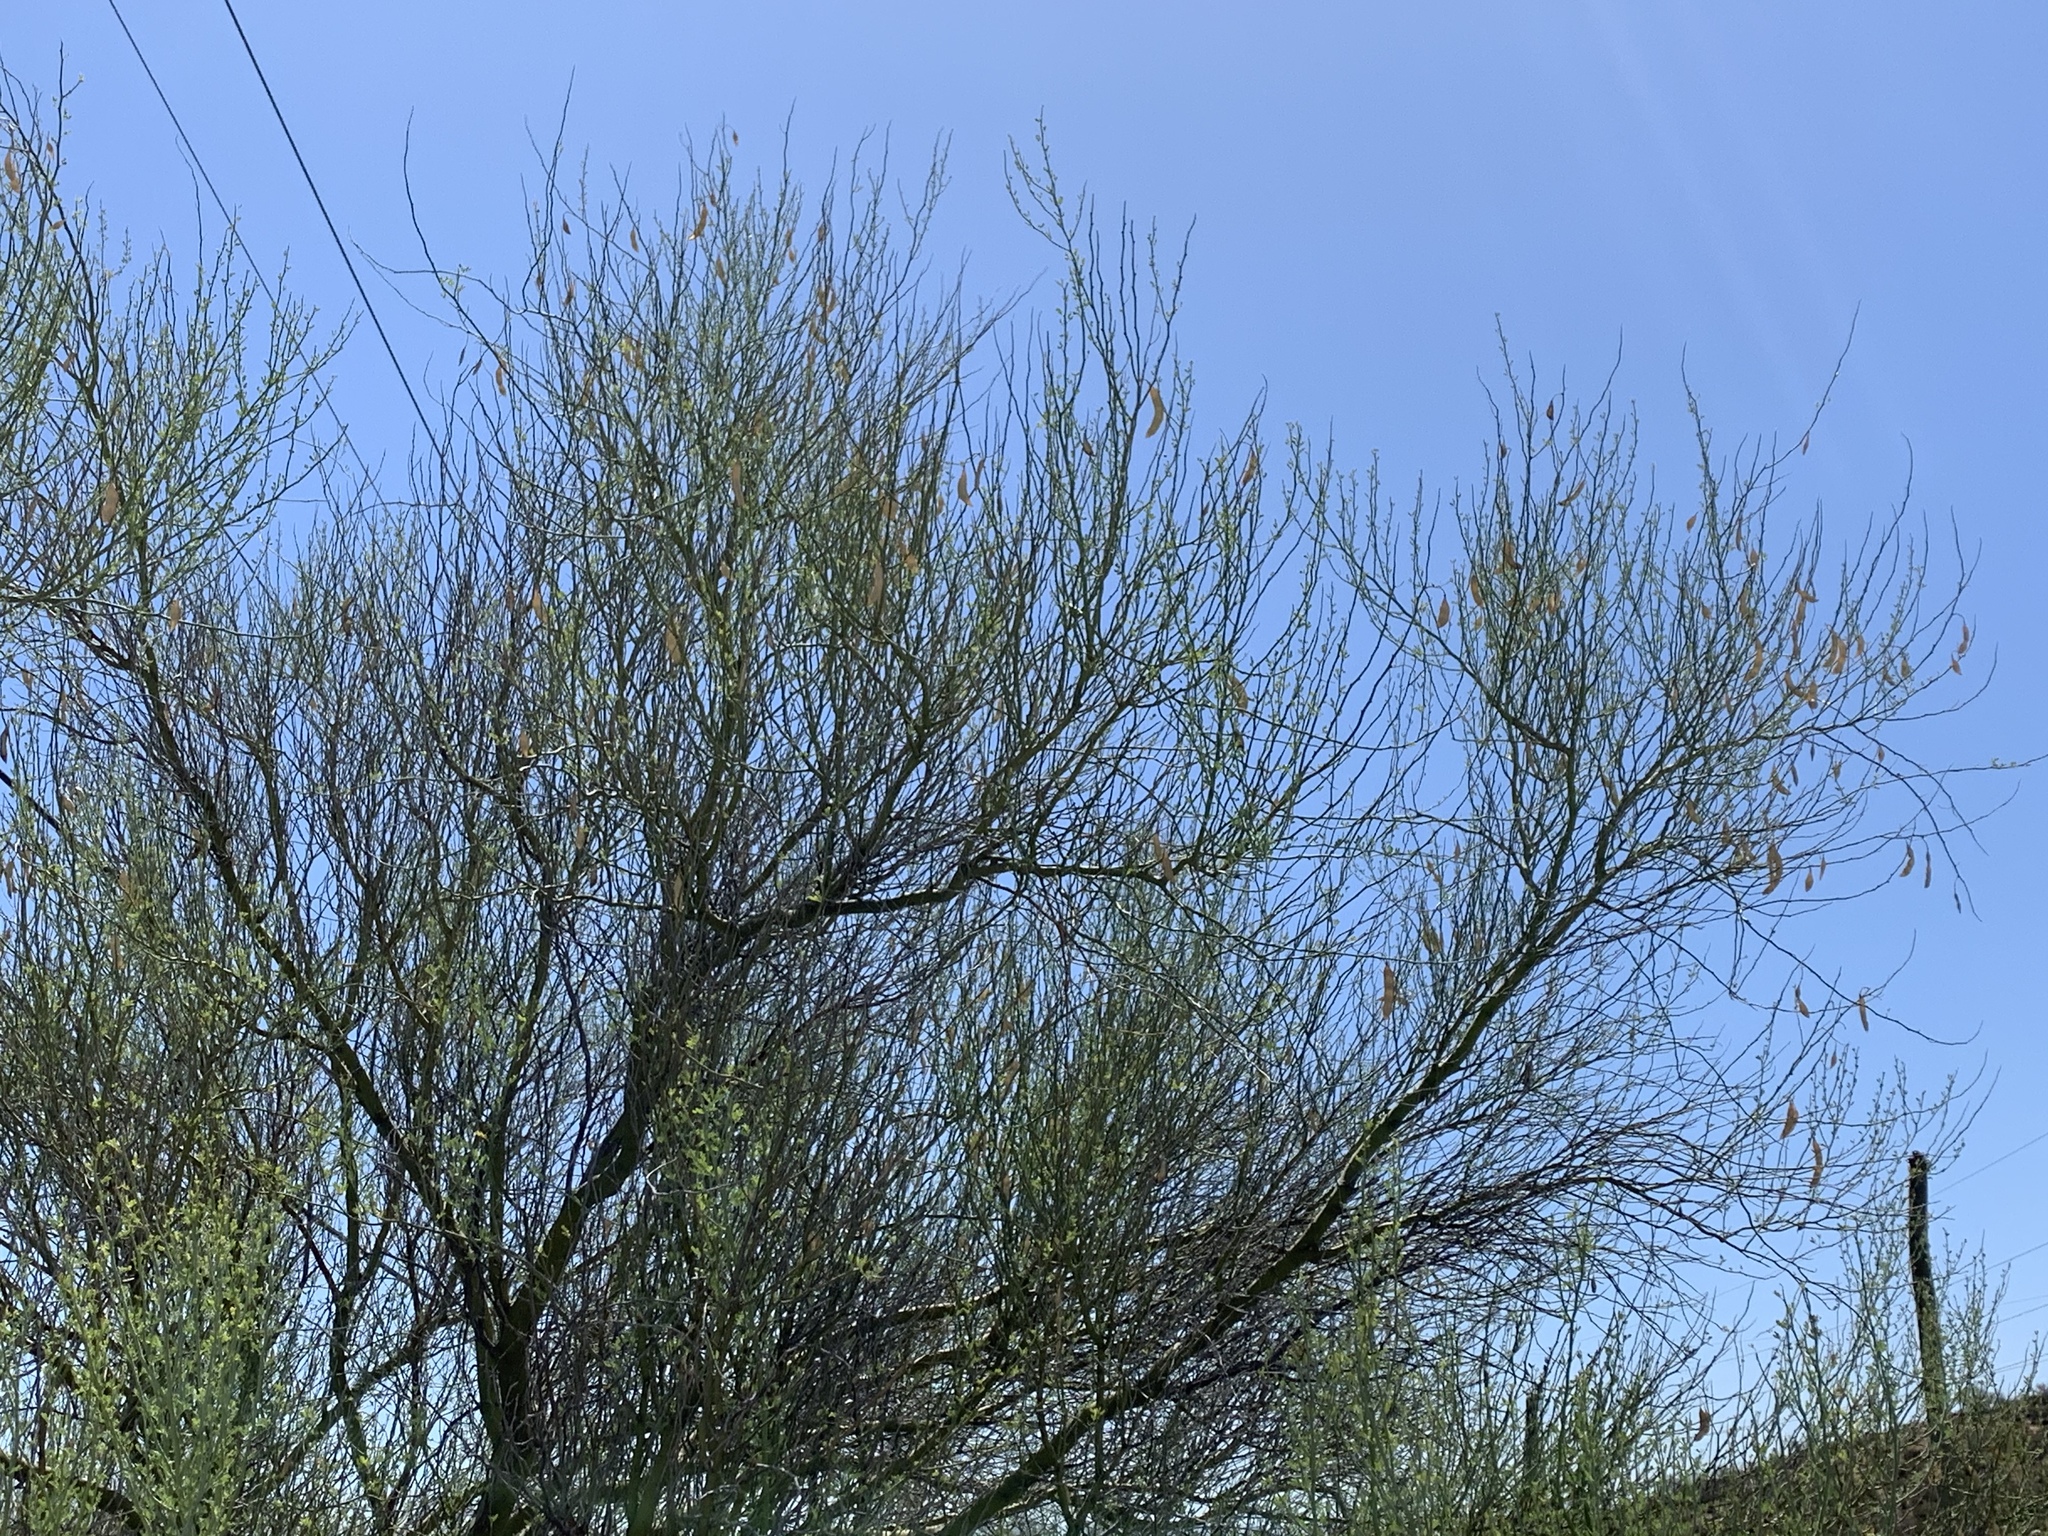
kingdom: Plantae
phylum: Tracheophyta
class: Magnoliopsida
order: Fabales
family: Fabaceae
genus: Parkinsonia
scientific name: Parkinsonia florida
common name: Blue paloverde
